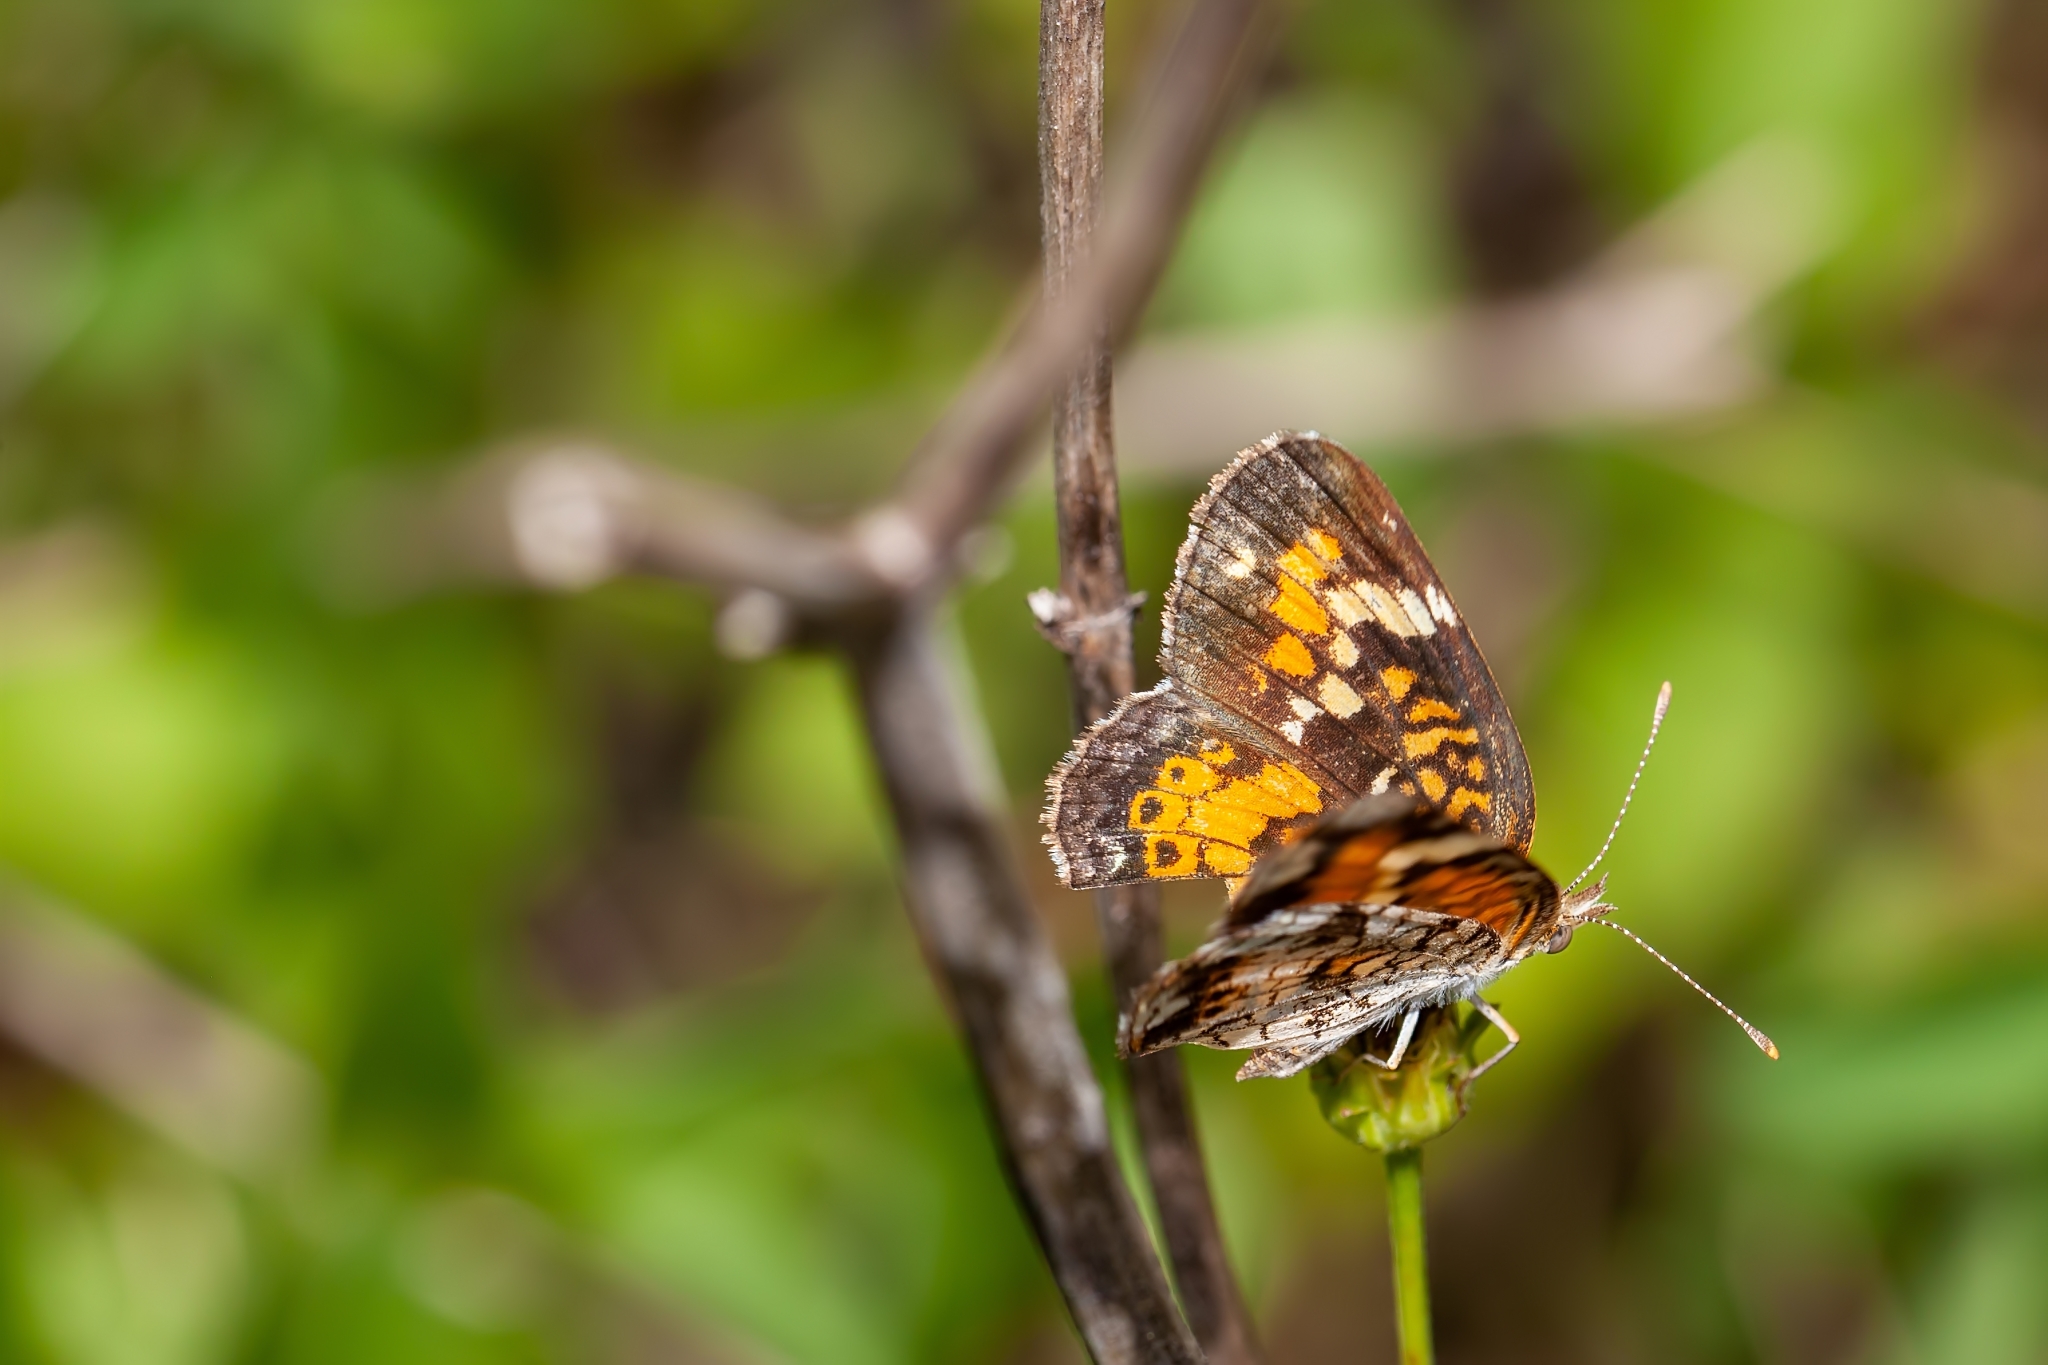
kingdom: Animalia
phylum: Arthropoda
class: Insecta
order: Lepidoptera
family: Nymphalidae
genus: Phyciodes
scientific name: Phyciodes phaon
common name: Phaon crescent
